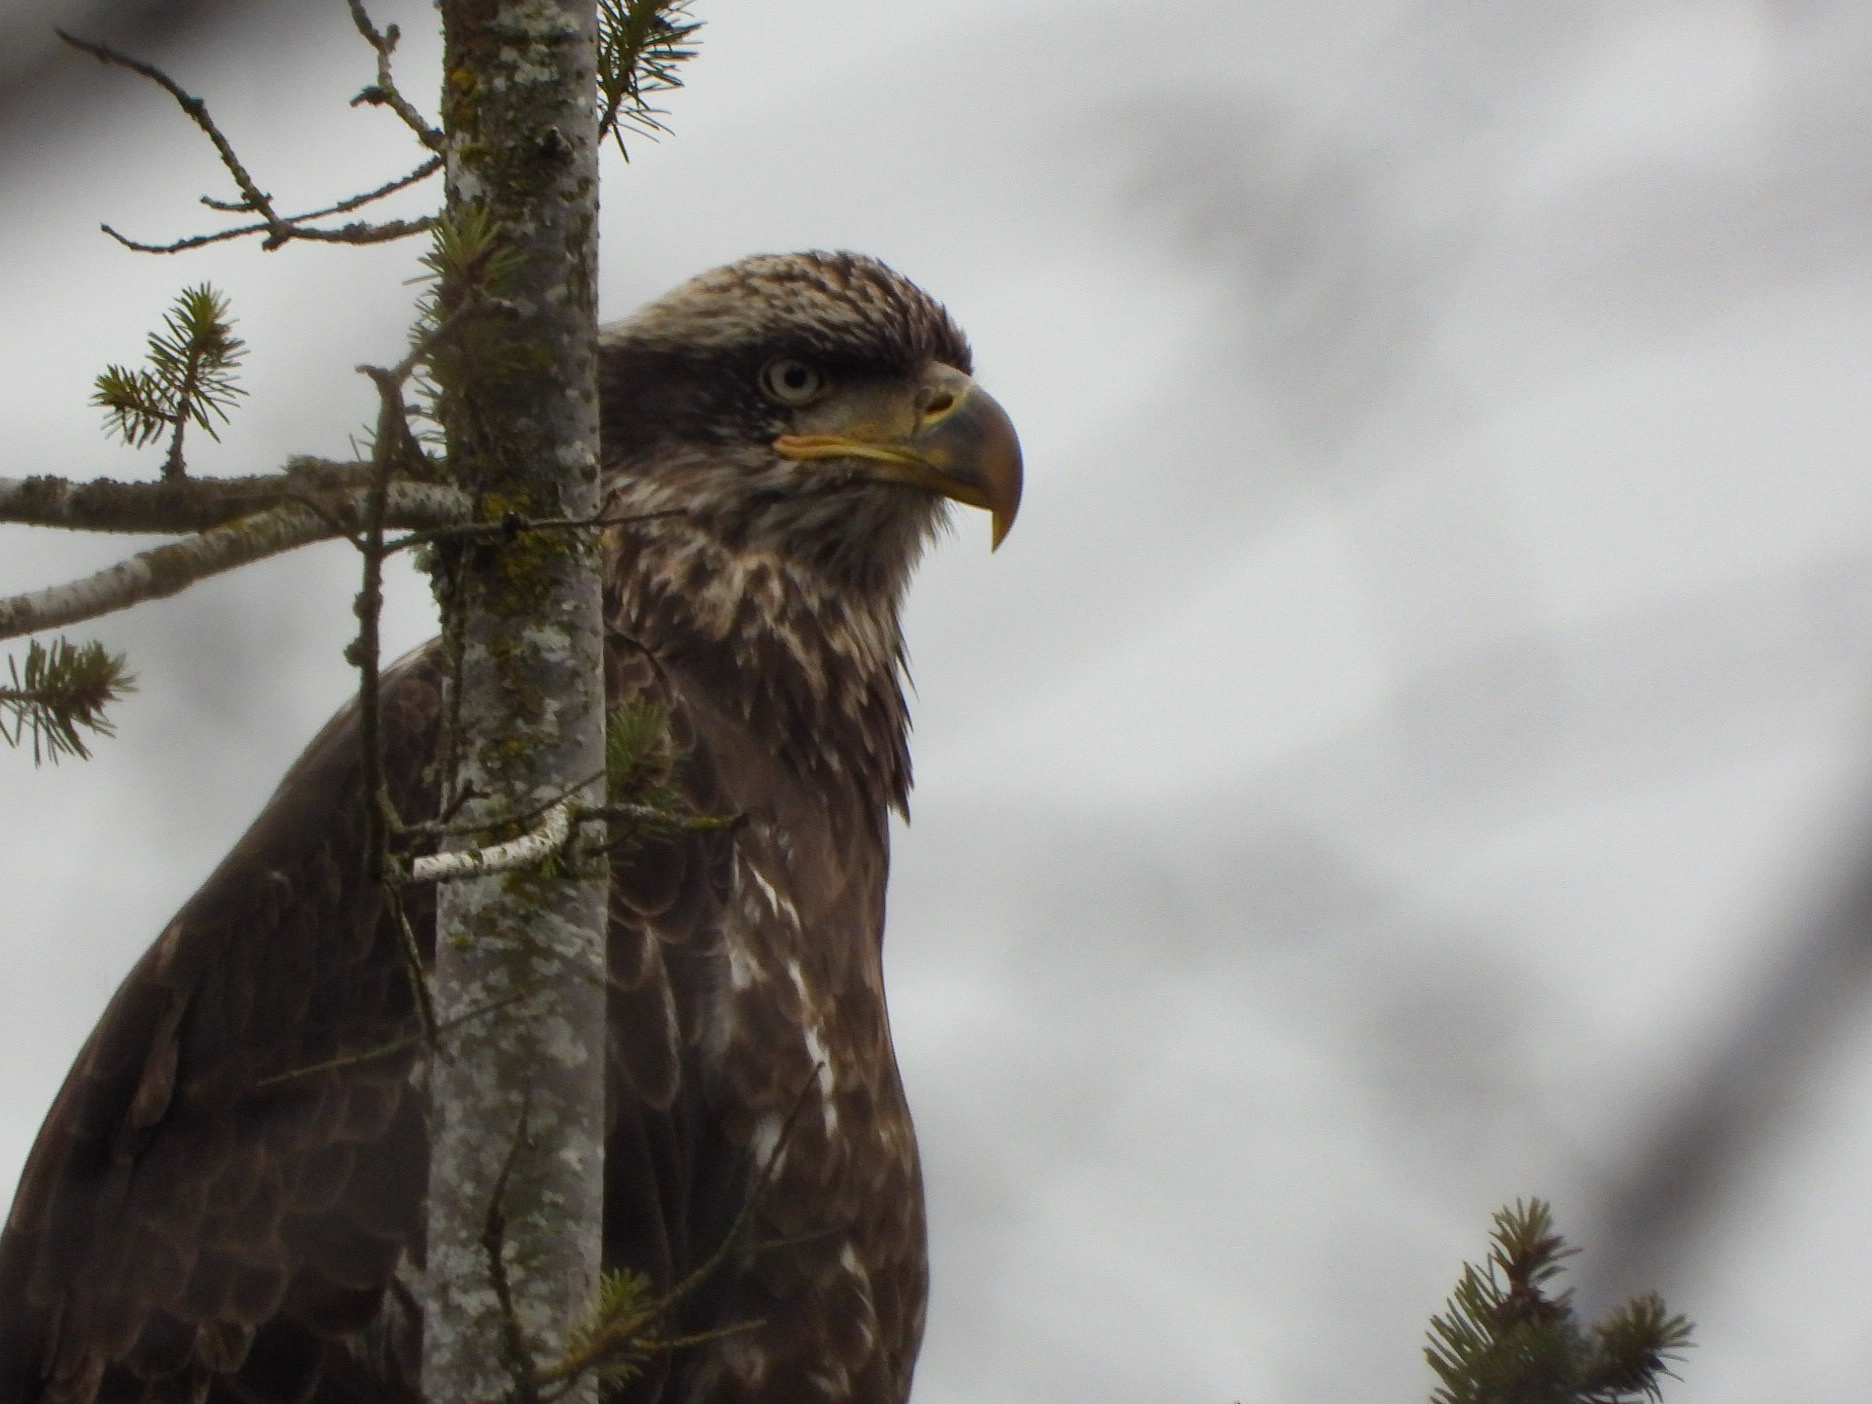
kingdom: Animalia
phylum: Chordata
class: Aves
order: Accipitriformes
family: Accipitridae
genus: Haliaeetus
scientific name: Haliaeetus leucocephalus
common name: Bald eagle
